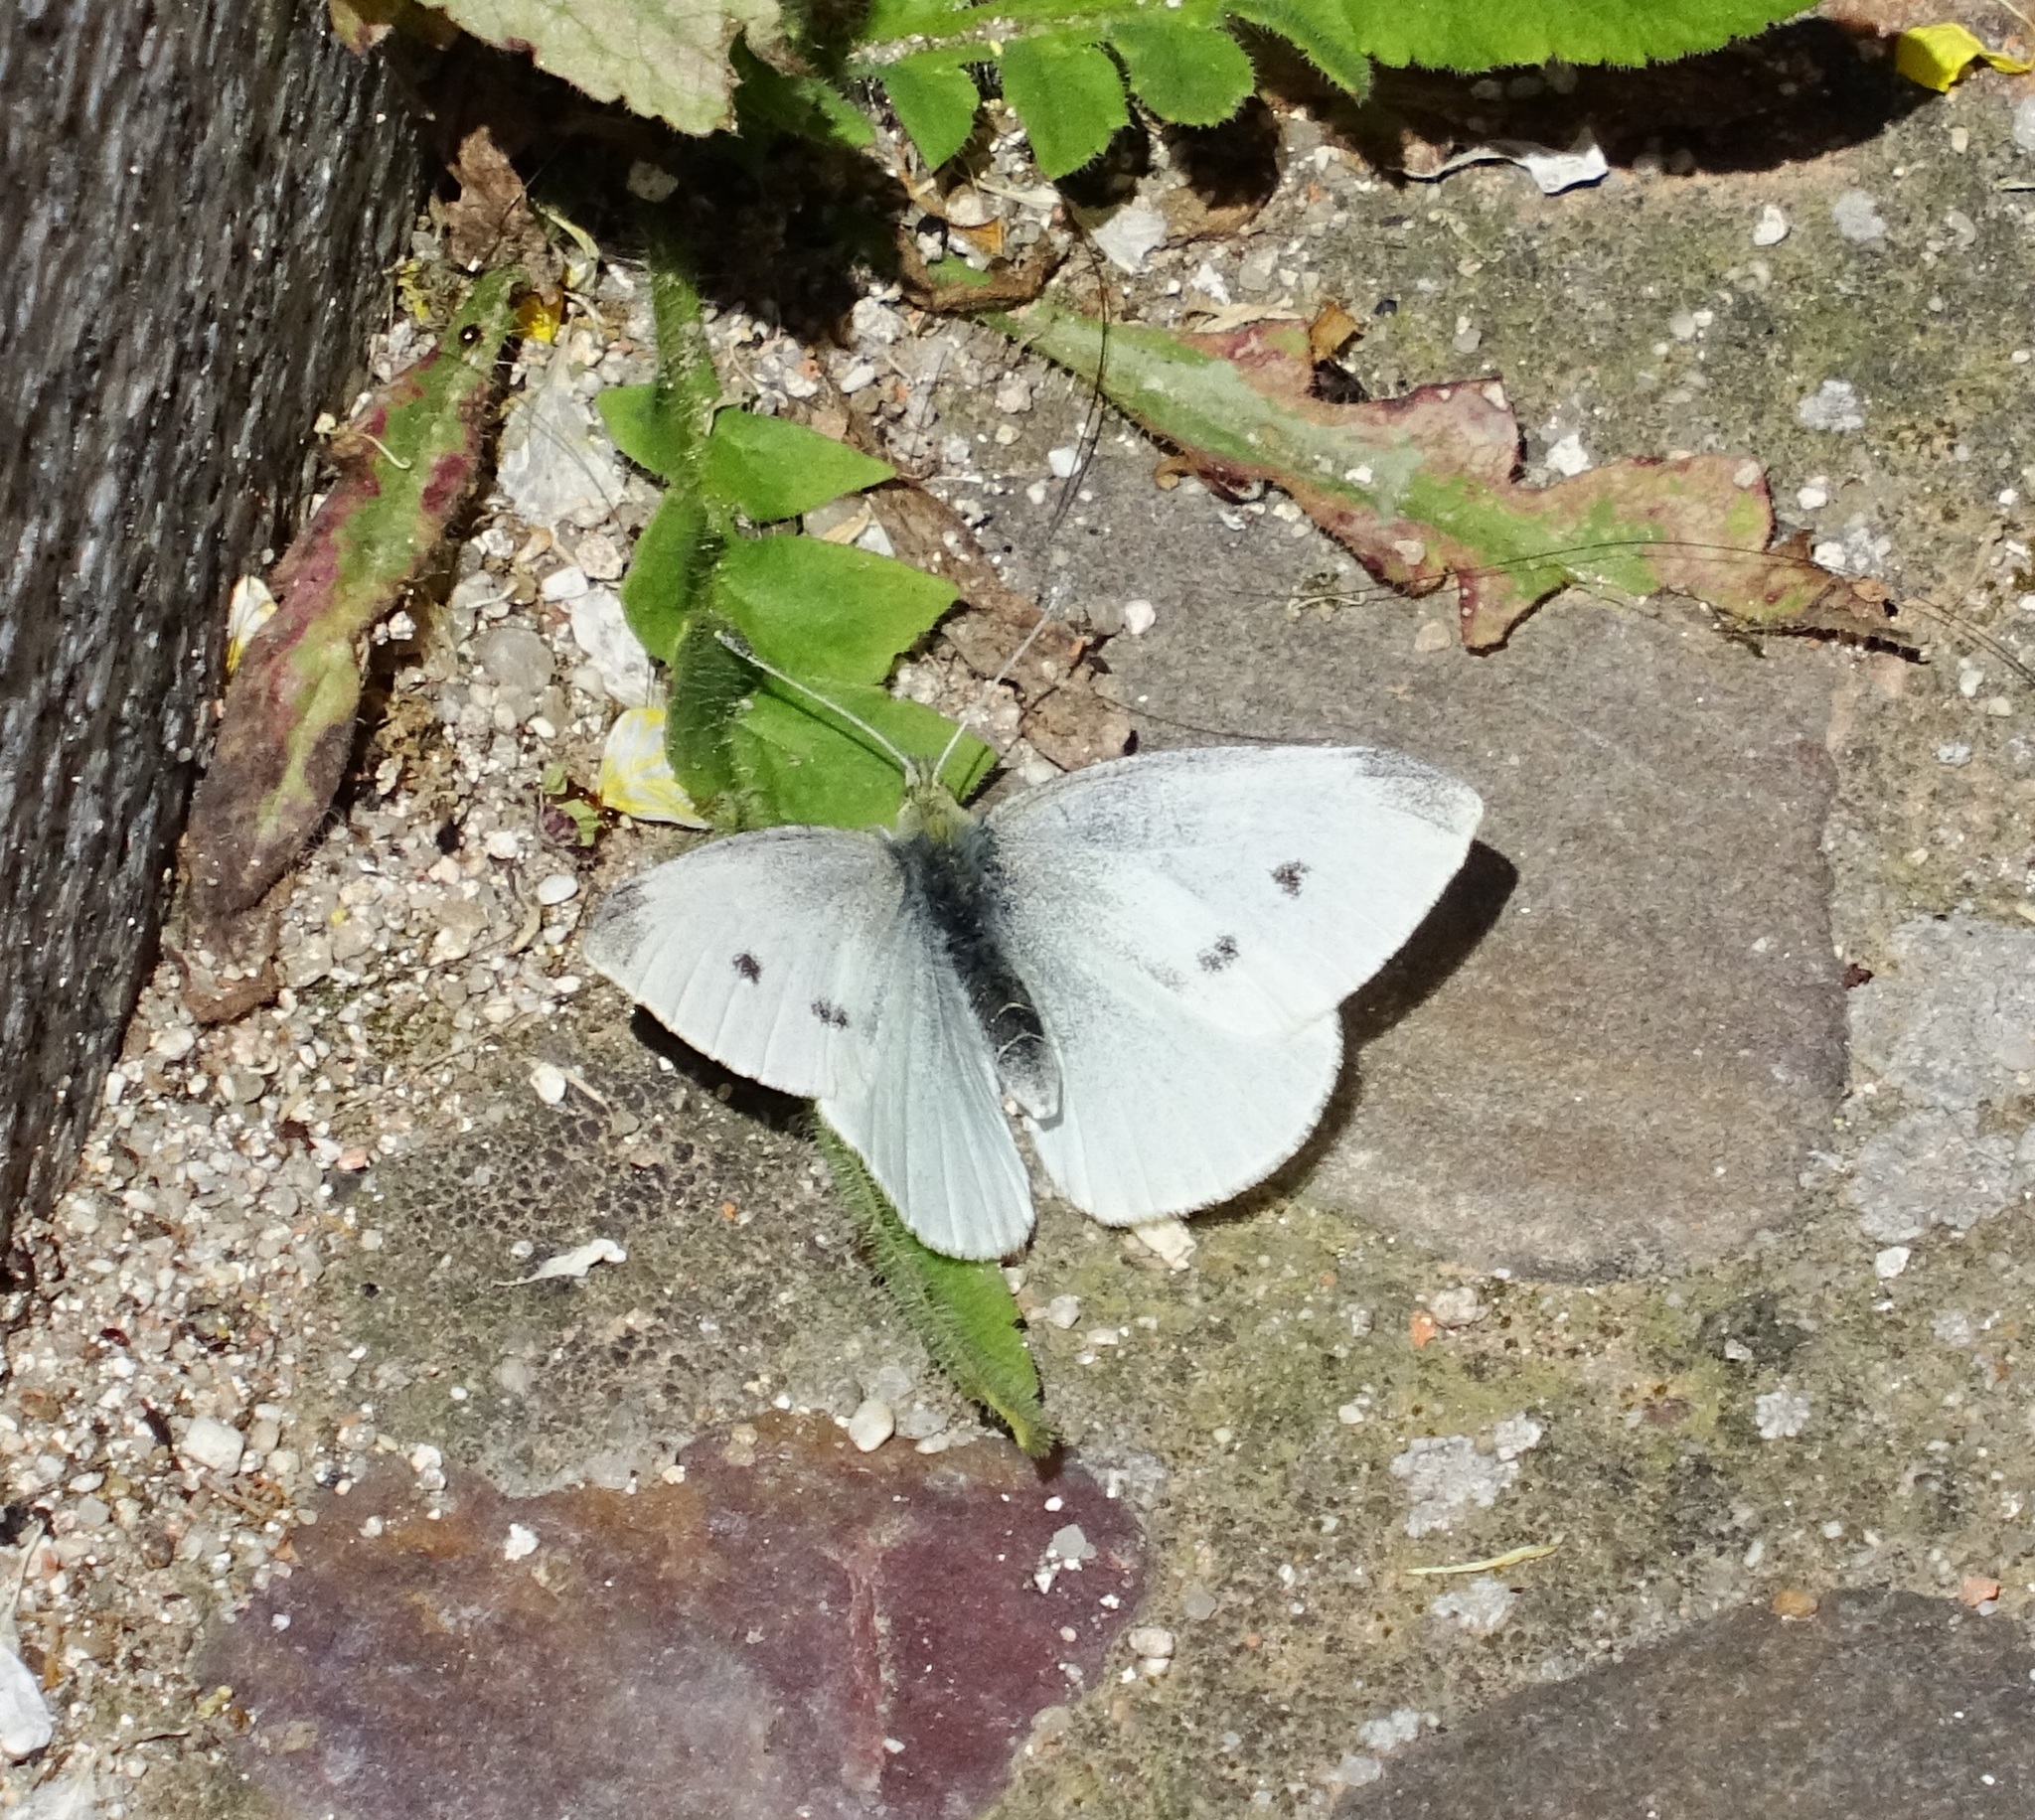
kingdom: Animalia
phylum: Arthropoda
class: Insecta
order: Lepidoptera
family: Pieridae
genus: Pieris
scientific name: Pieris rapae
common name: Small white
